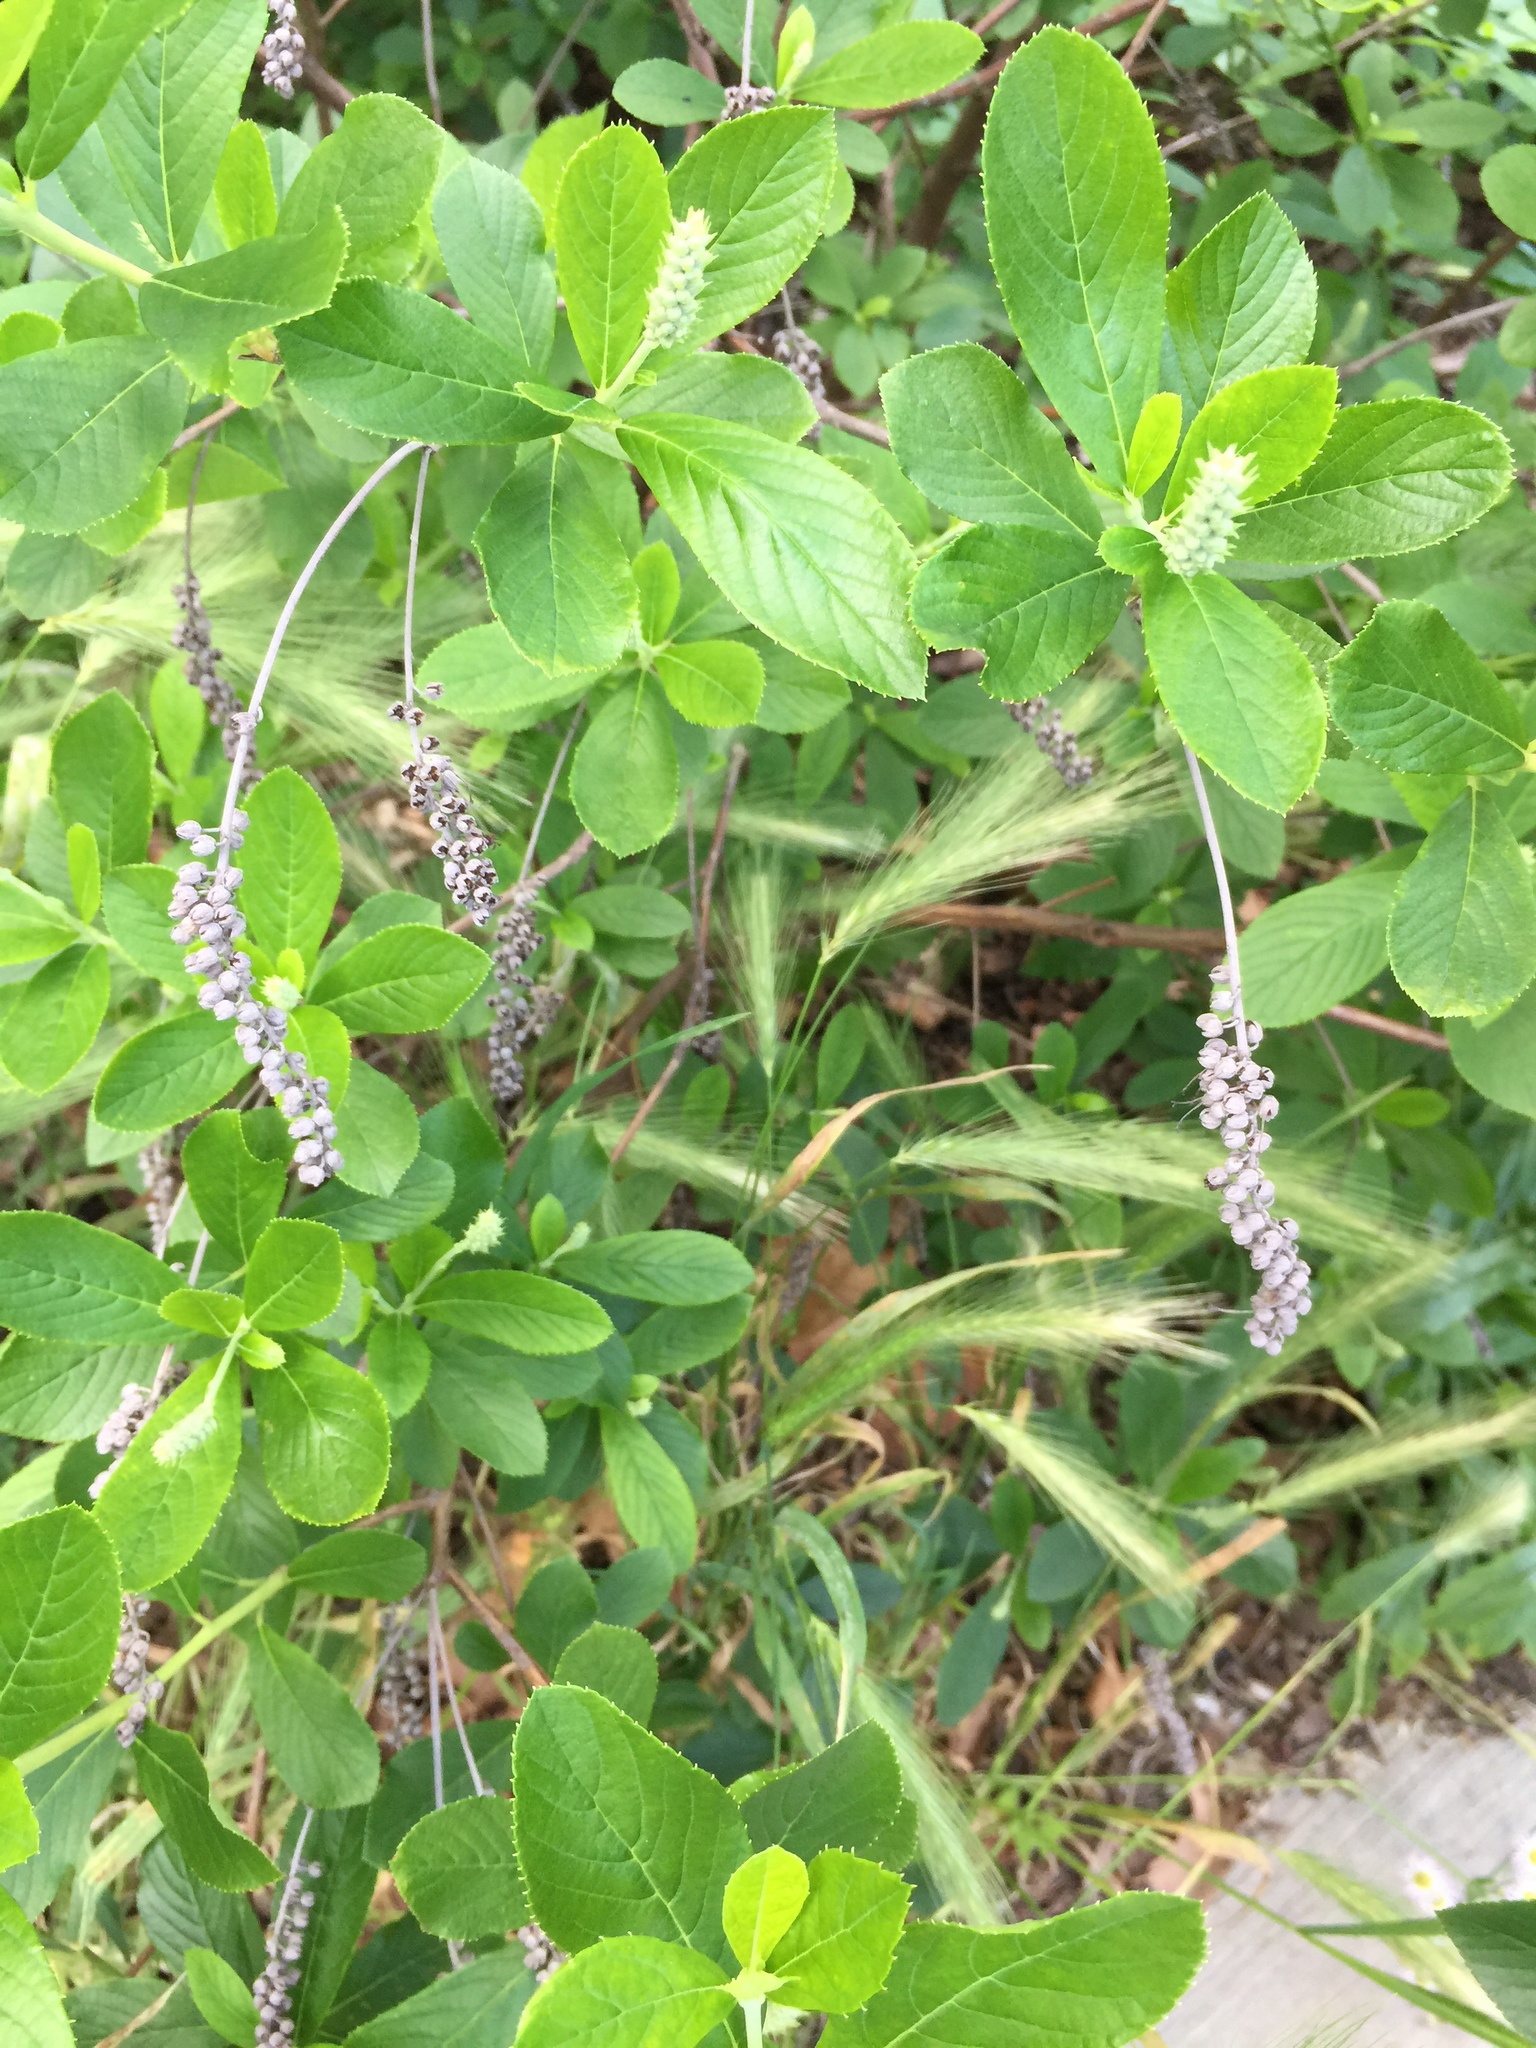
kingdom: Plantae
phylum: Tracheophyta
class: Magnoliopsida
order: Ericales
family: Clethraceae
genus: Clethra
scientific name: Clethra alnifolia
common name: Sweet pepperbush
